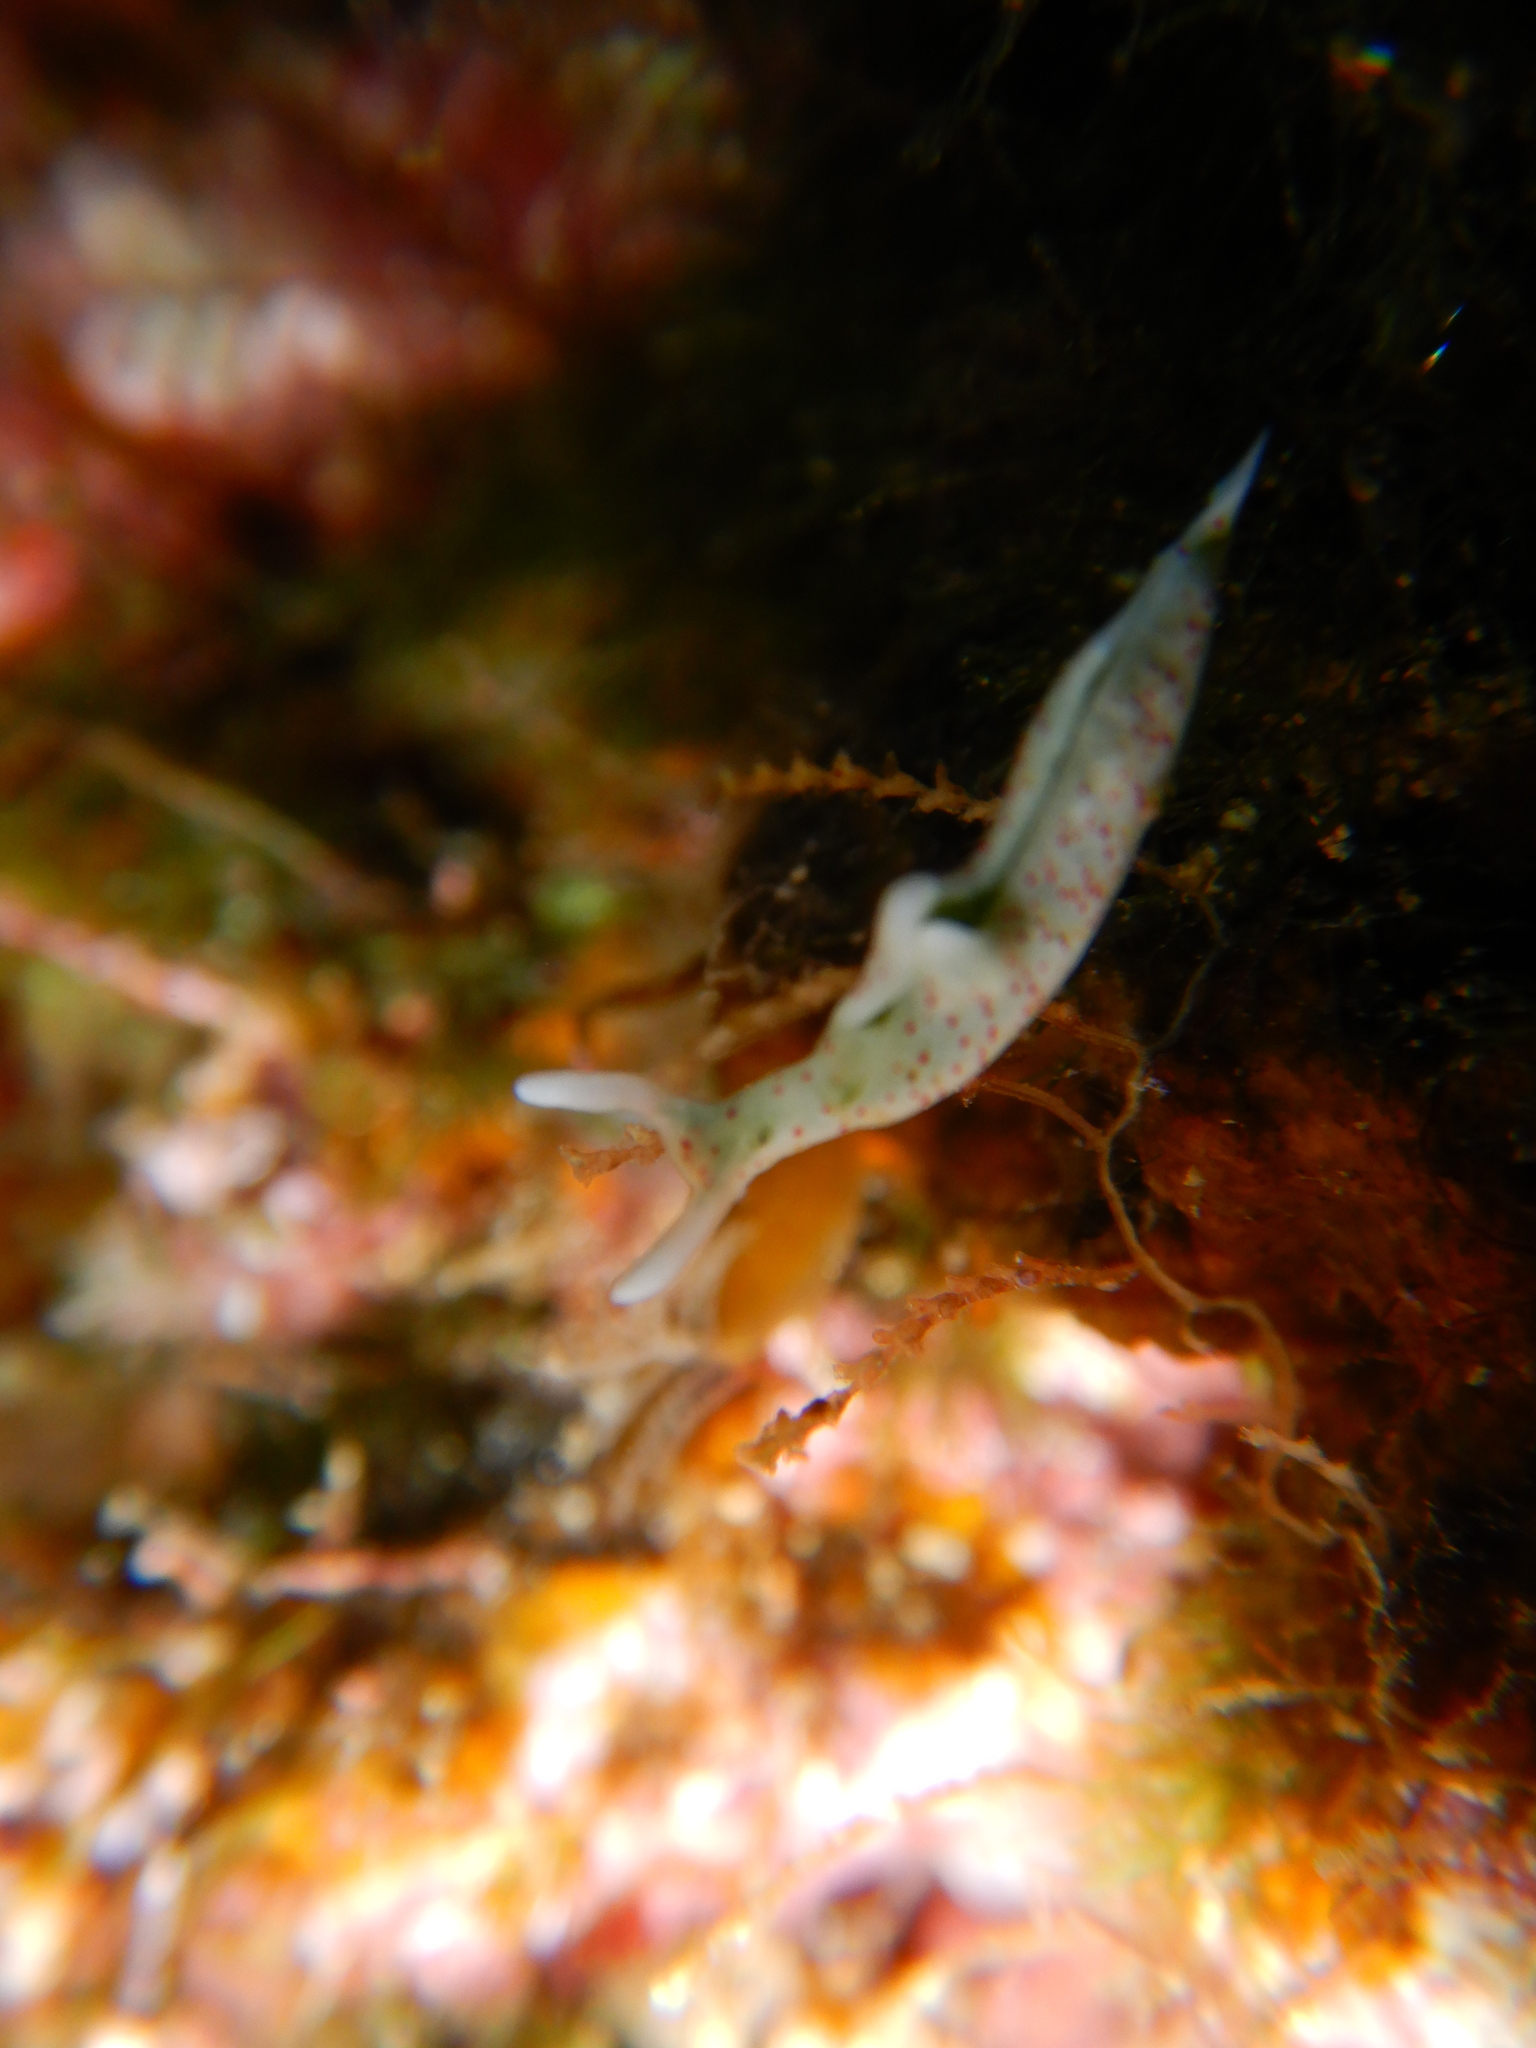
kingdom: Animalia
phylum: Mollusca
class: Gastropoda
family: Plakobranchidae
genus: Elysia
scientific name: Elysia timida
